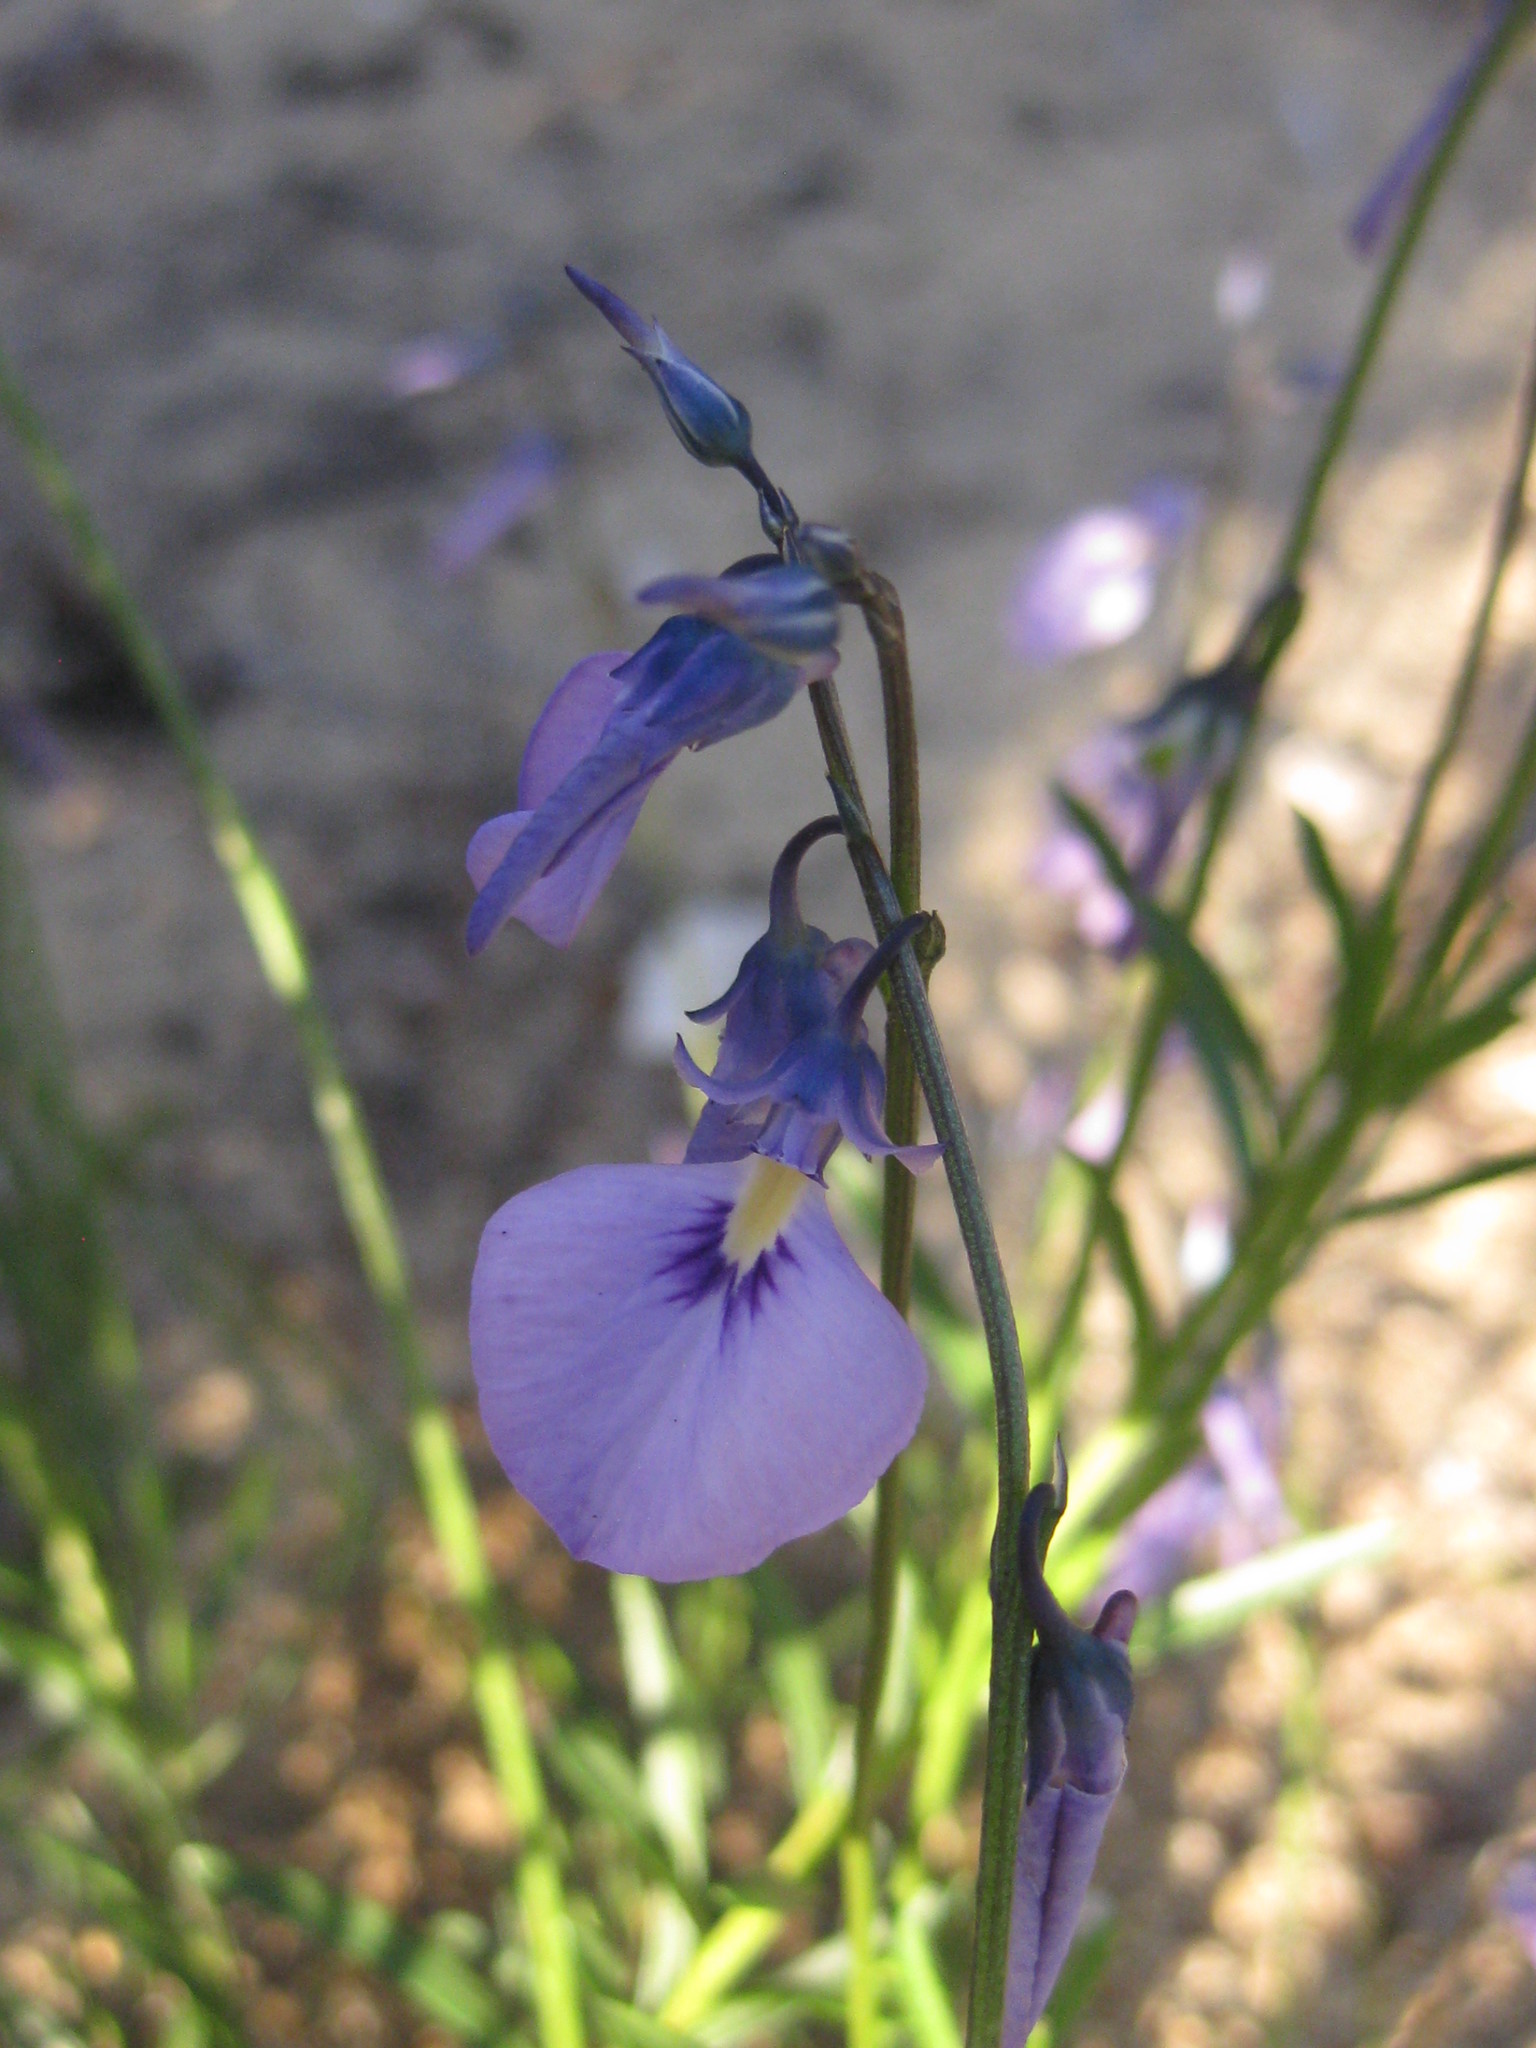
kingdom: Plantae
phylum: Tracheophyta
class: Magnoliopsida
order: Malpighiales
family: Violaceae
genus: Pigea
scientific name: Pigea calycina
